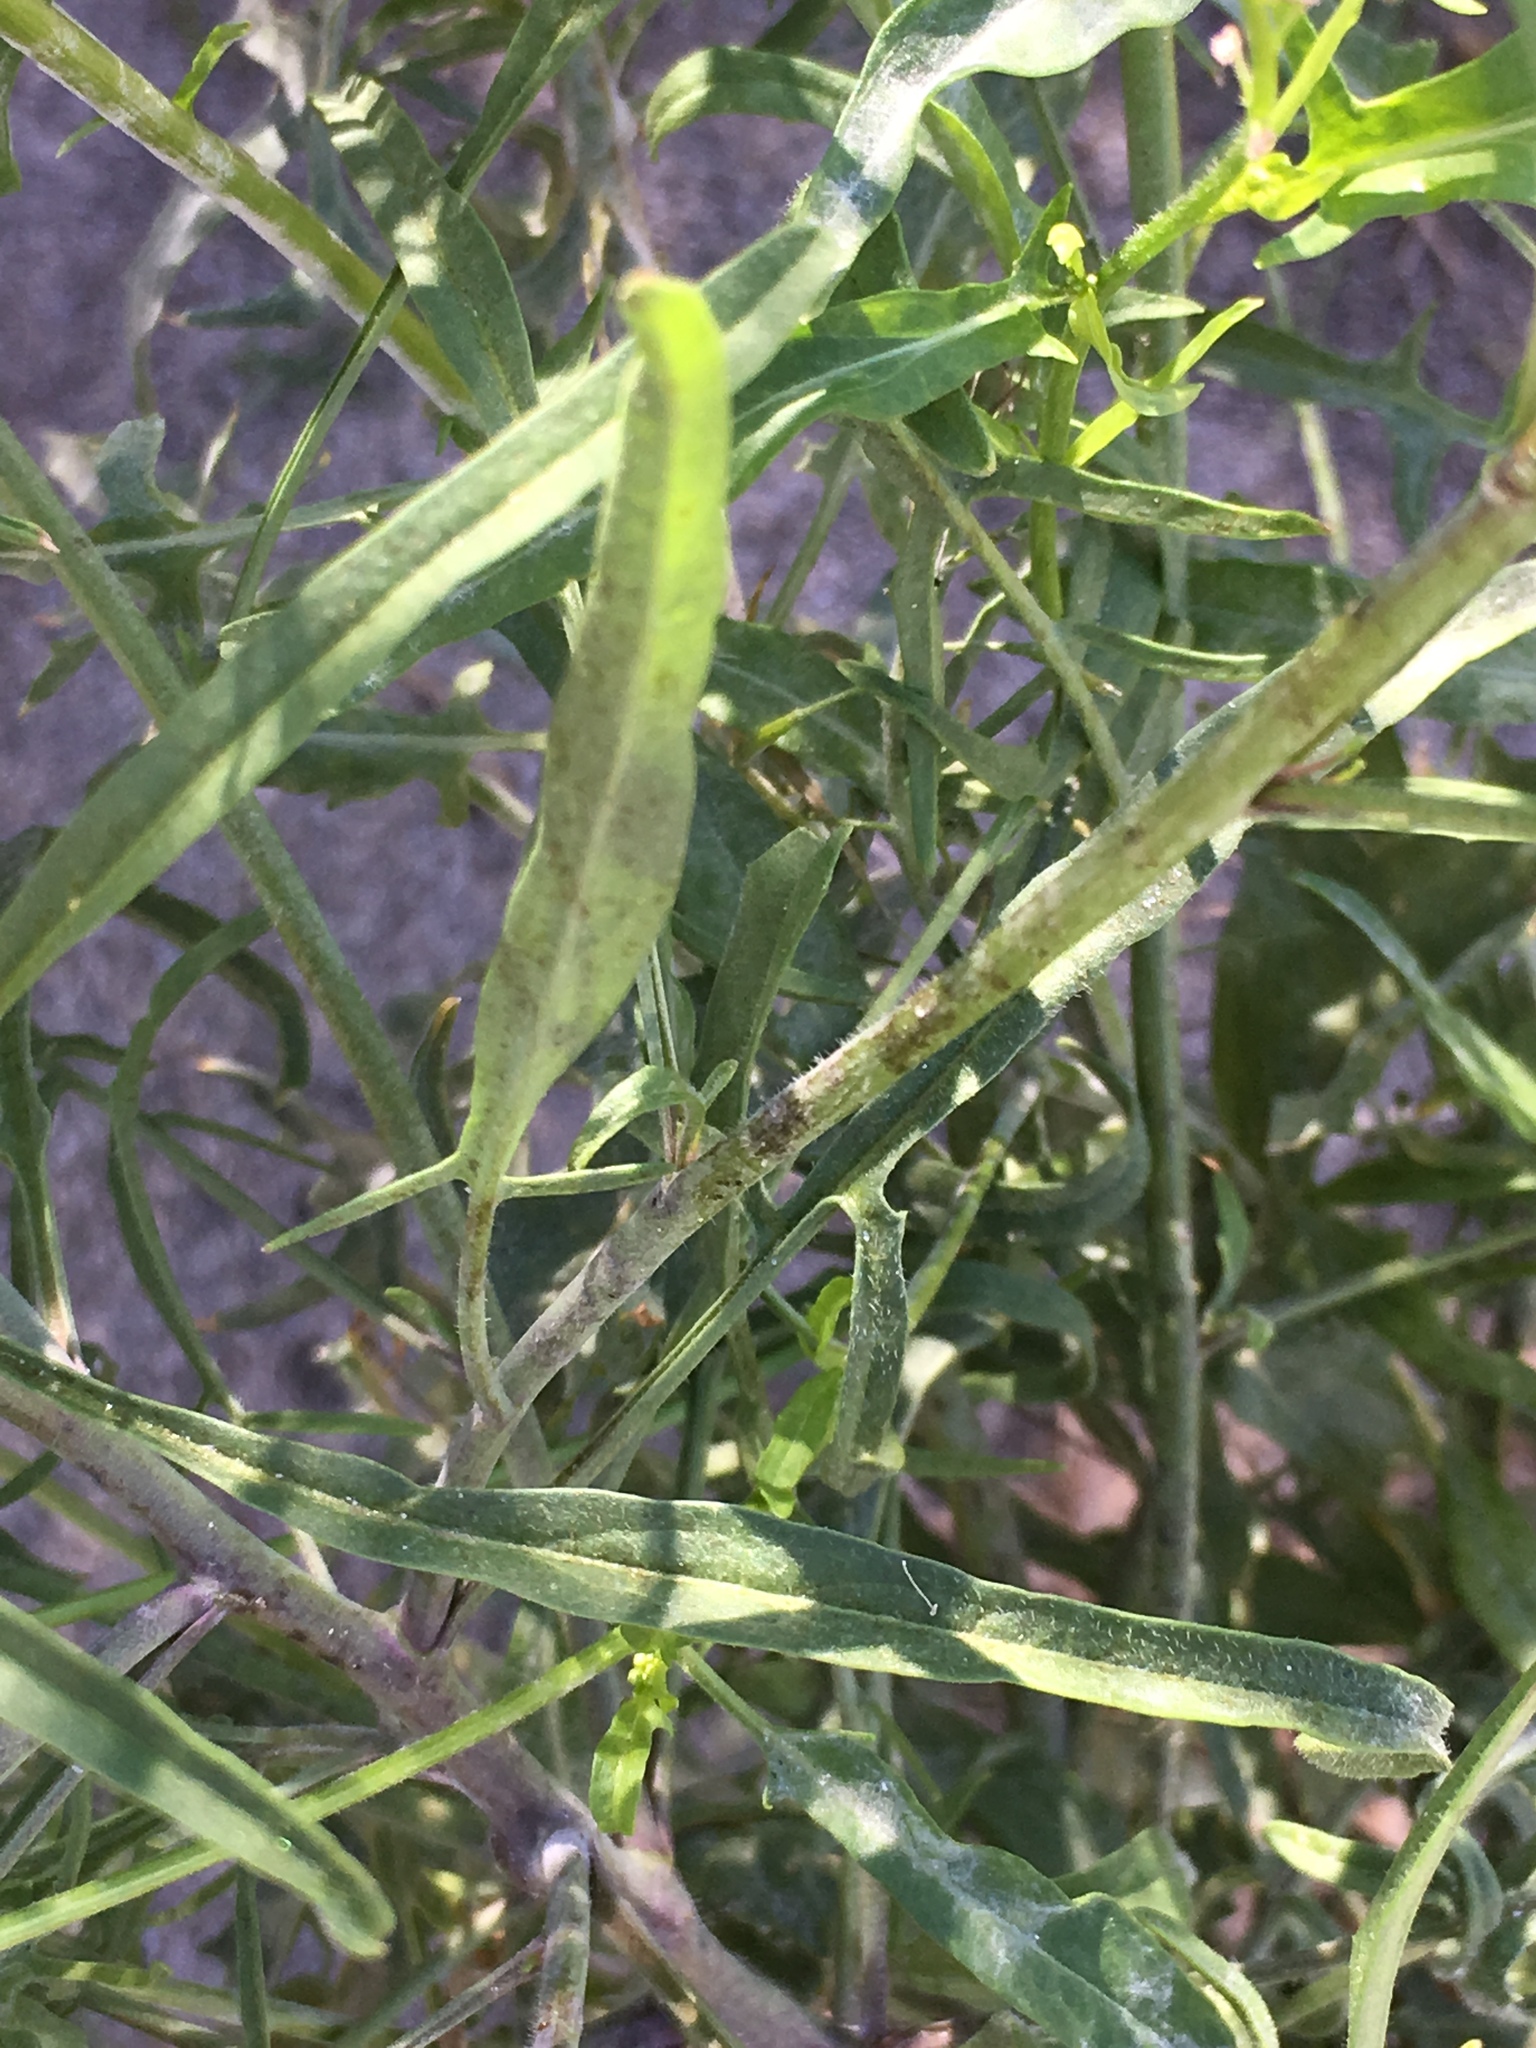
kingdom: Plantae
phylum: Tracheophyta
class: Magnoliopsida
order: Brassicales
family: Brassicaceae
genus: Sisymbrium
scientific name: Sisymbrium irio
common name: London rocket
